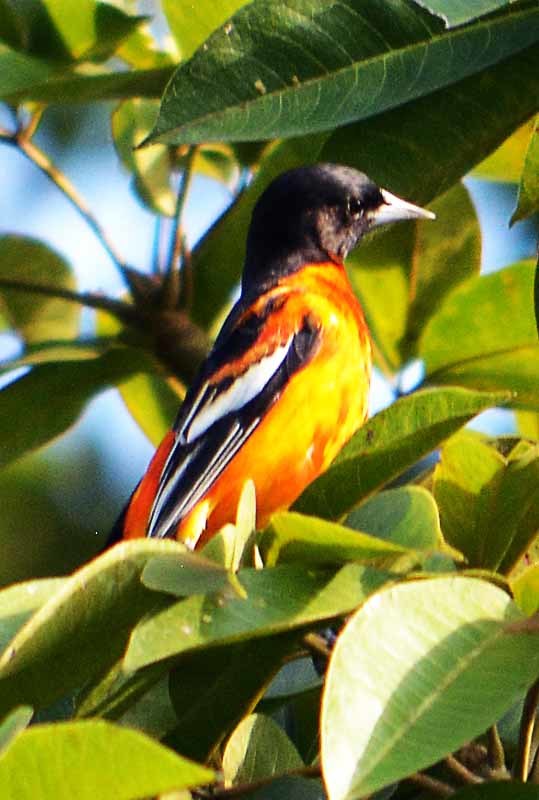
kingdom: Animalia
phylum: Chordata
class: Aves
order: Passeriformes
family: Icteridae
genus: Icterus
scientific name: Icterus galbula
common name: Baltimore oriole
